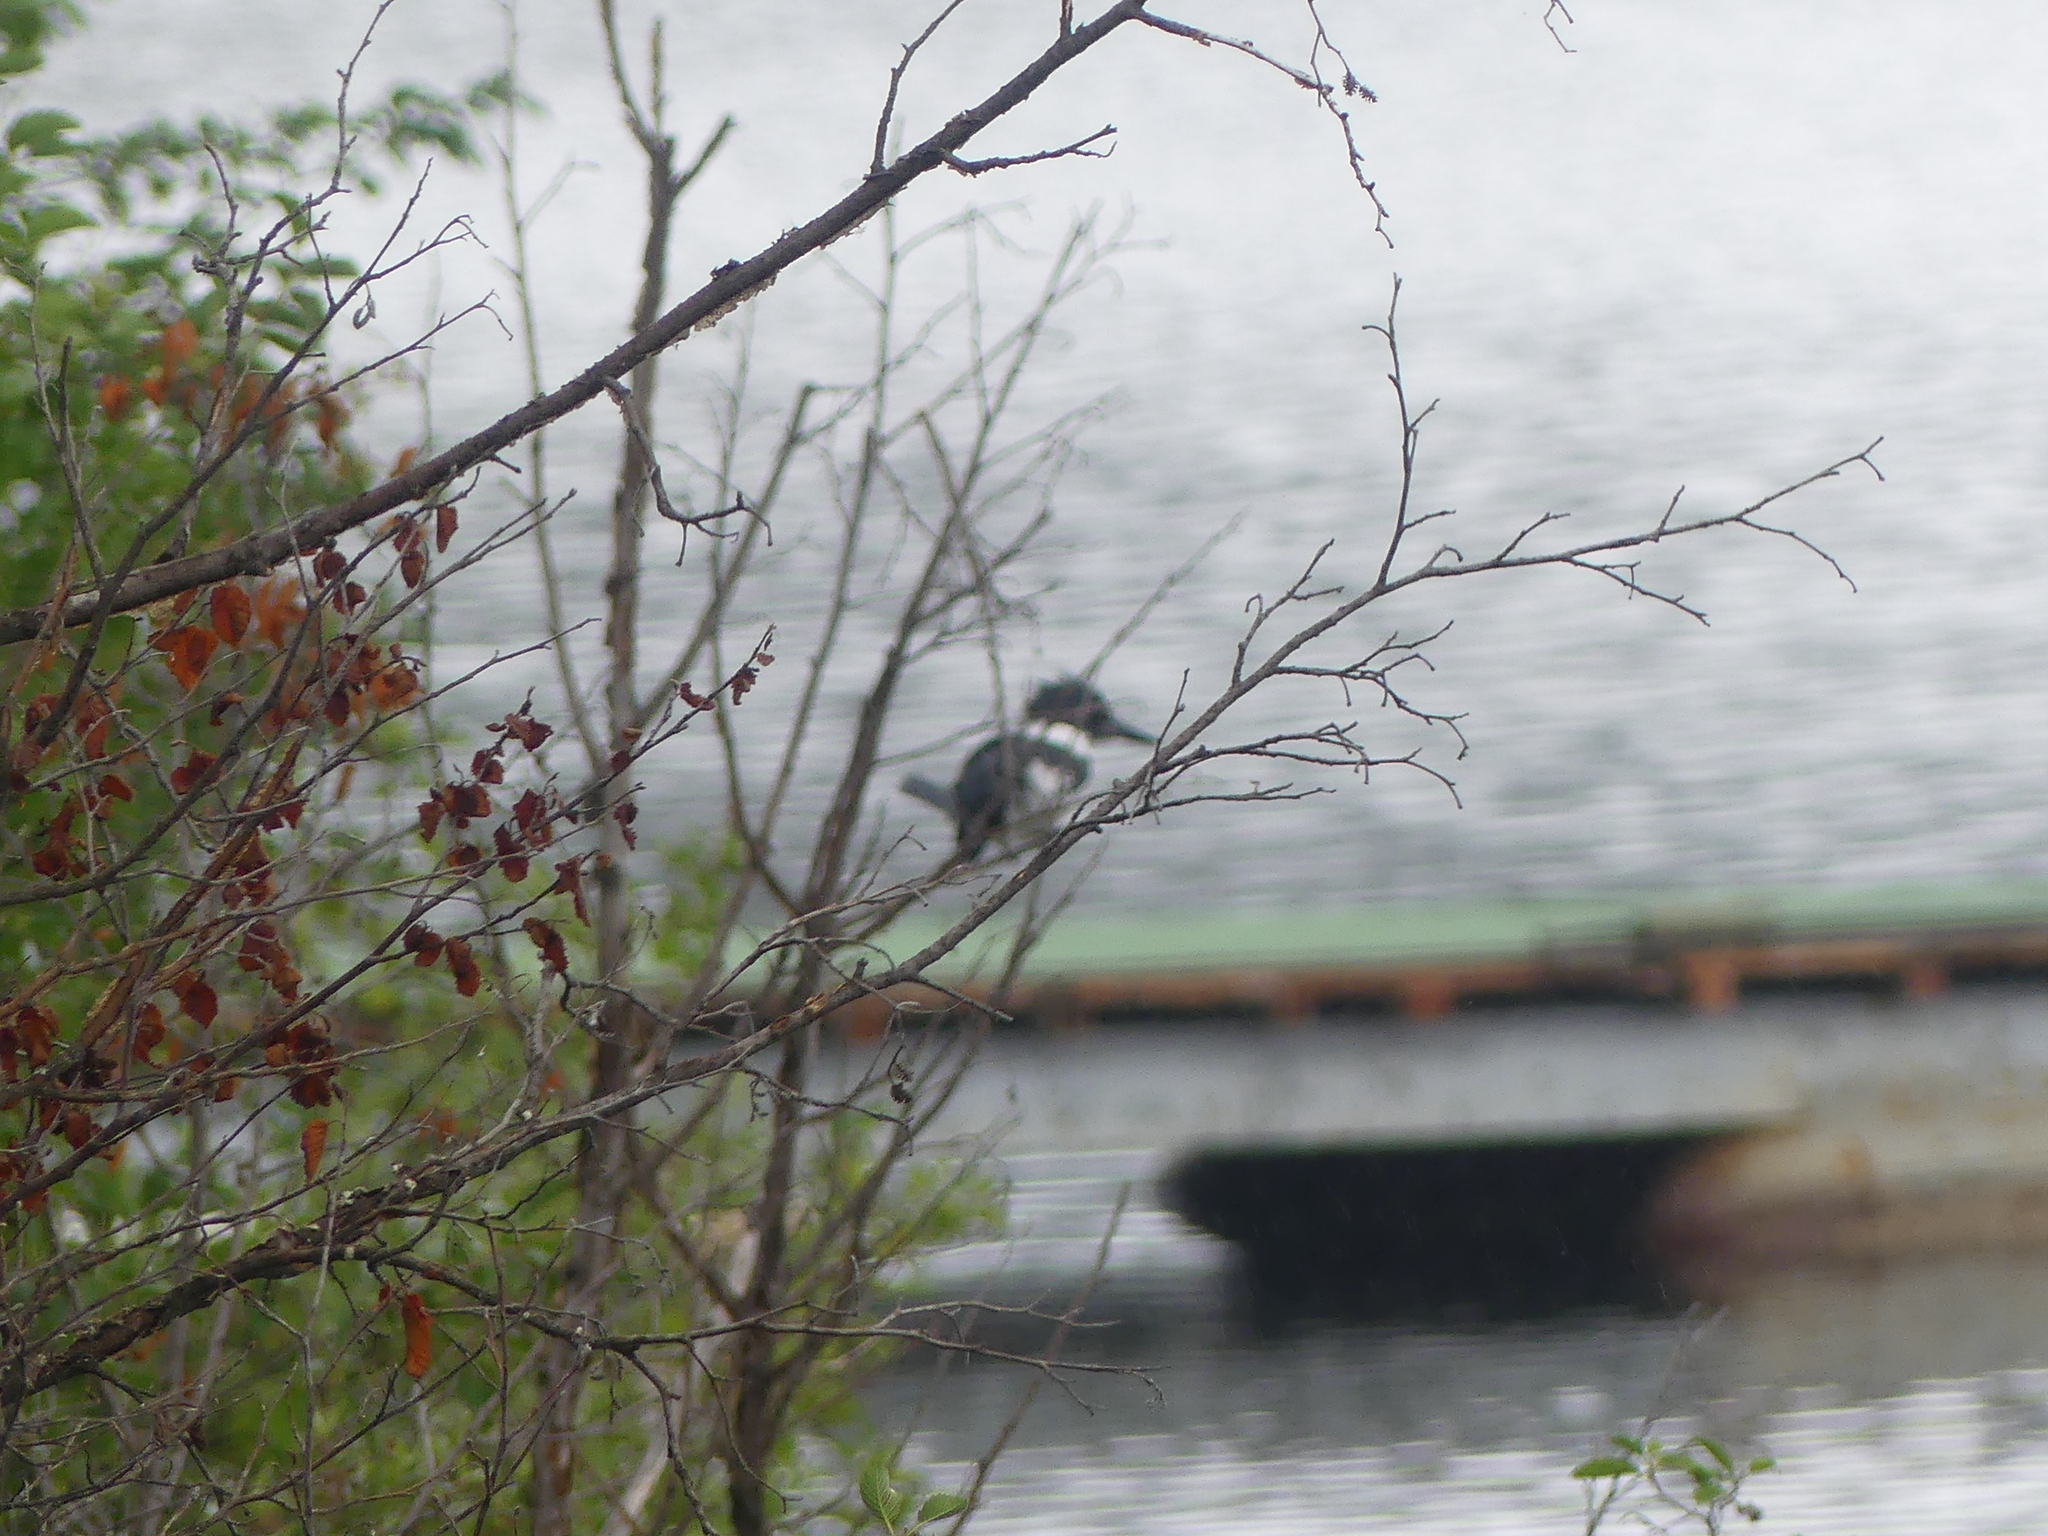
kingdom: Animalia
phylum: Chordata
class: Aves
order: Coraciiformes
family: Alcedinidae
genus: Megaceryle
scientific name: Megaceryle alcyon
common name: Belted kingfisher
